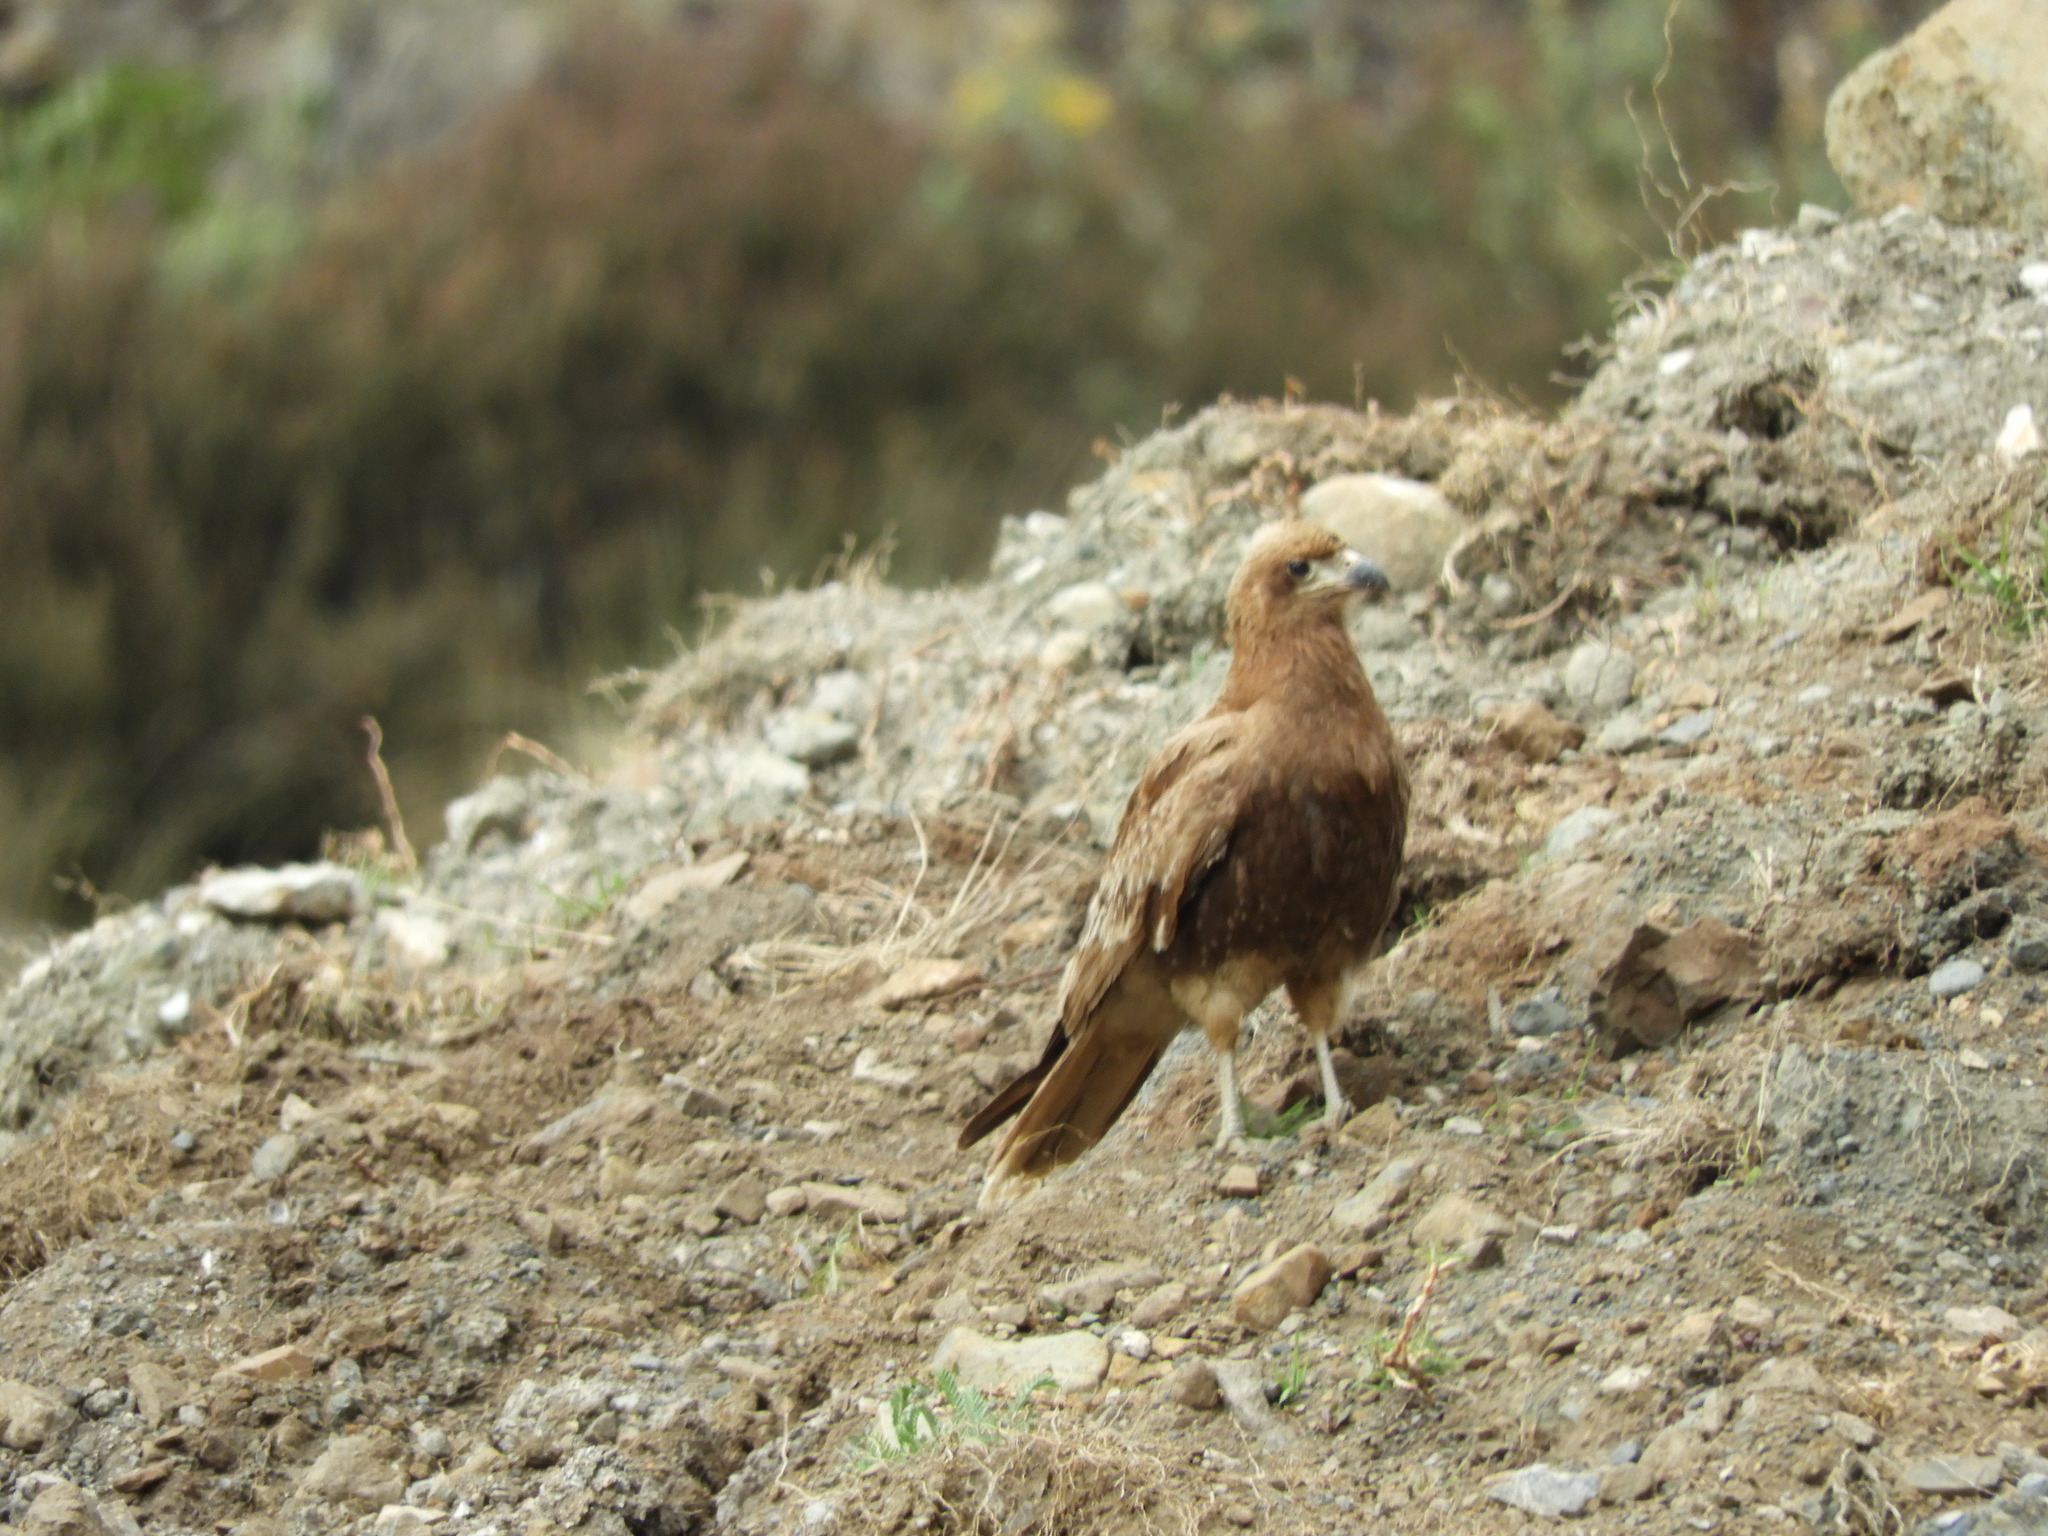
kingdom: Animalia
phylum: Chordata
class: Aves
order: Falconiformes
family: Falconidae
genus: Daptrius
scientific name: Daptrius
